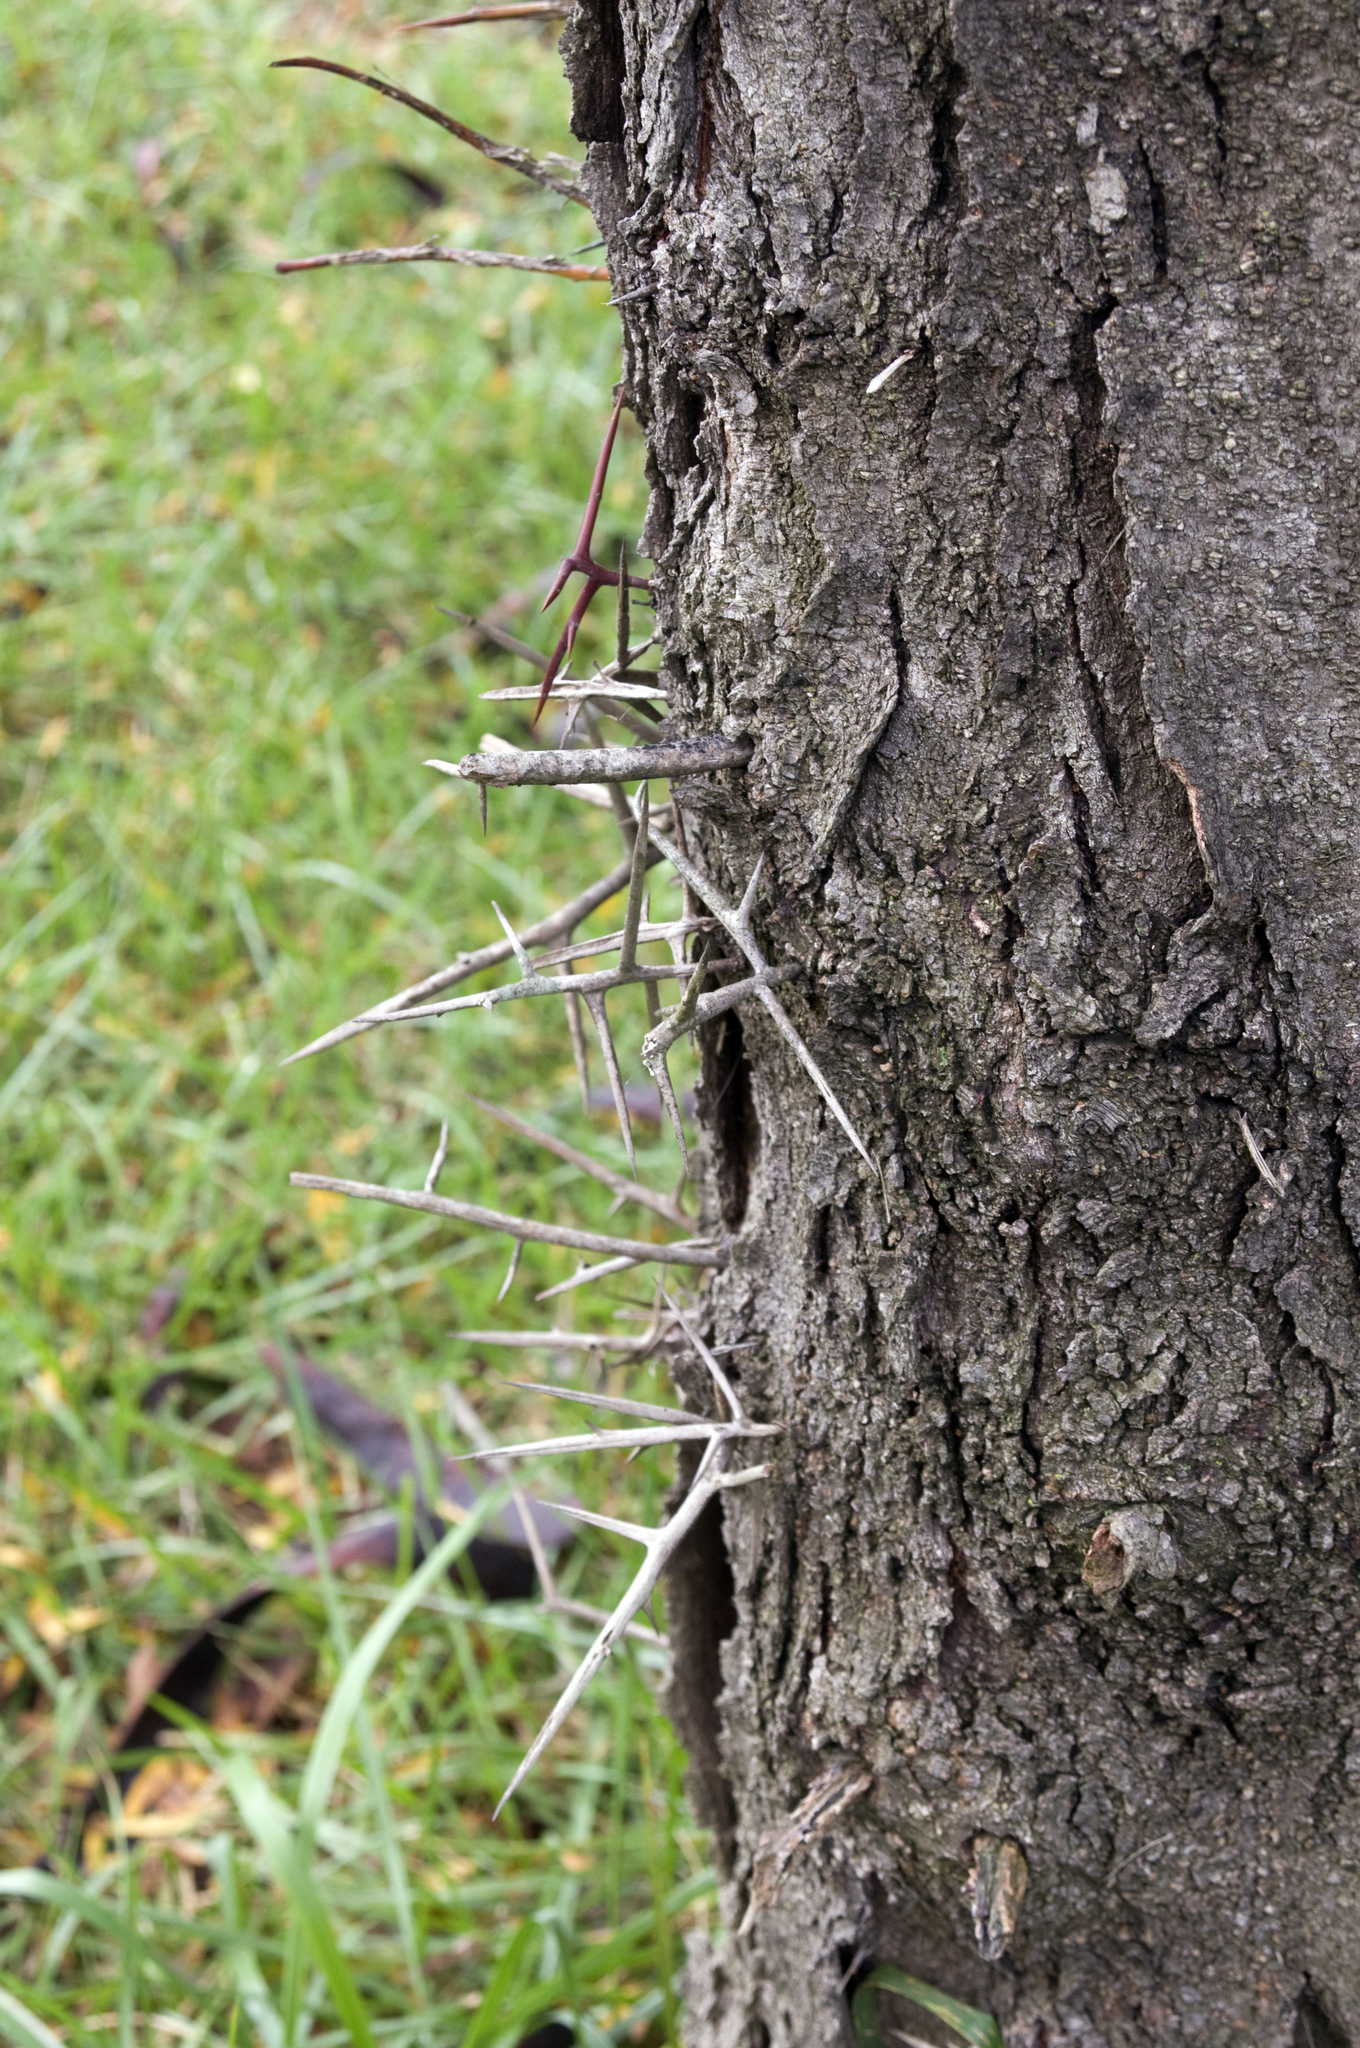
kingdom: Plantae
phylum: Tracheophyta
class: Magnoliopsida
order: Fabales
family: Fabaceae
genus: Gleditsia
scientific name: Gleditsia triacanthos
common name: Common honeylocust
